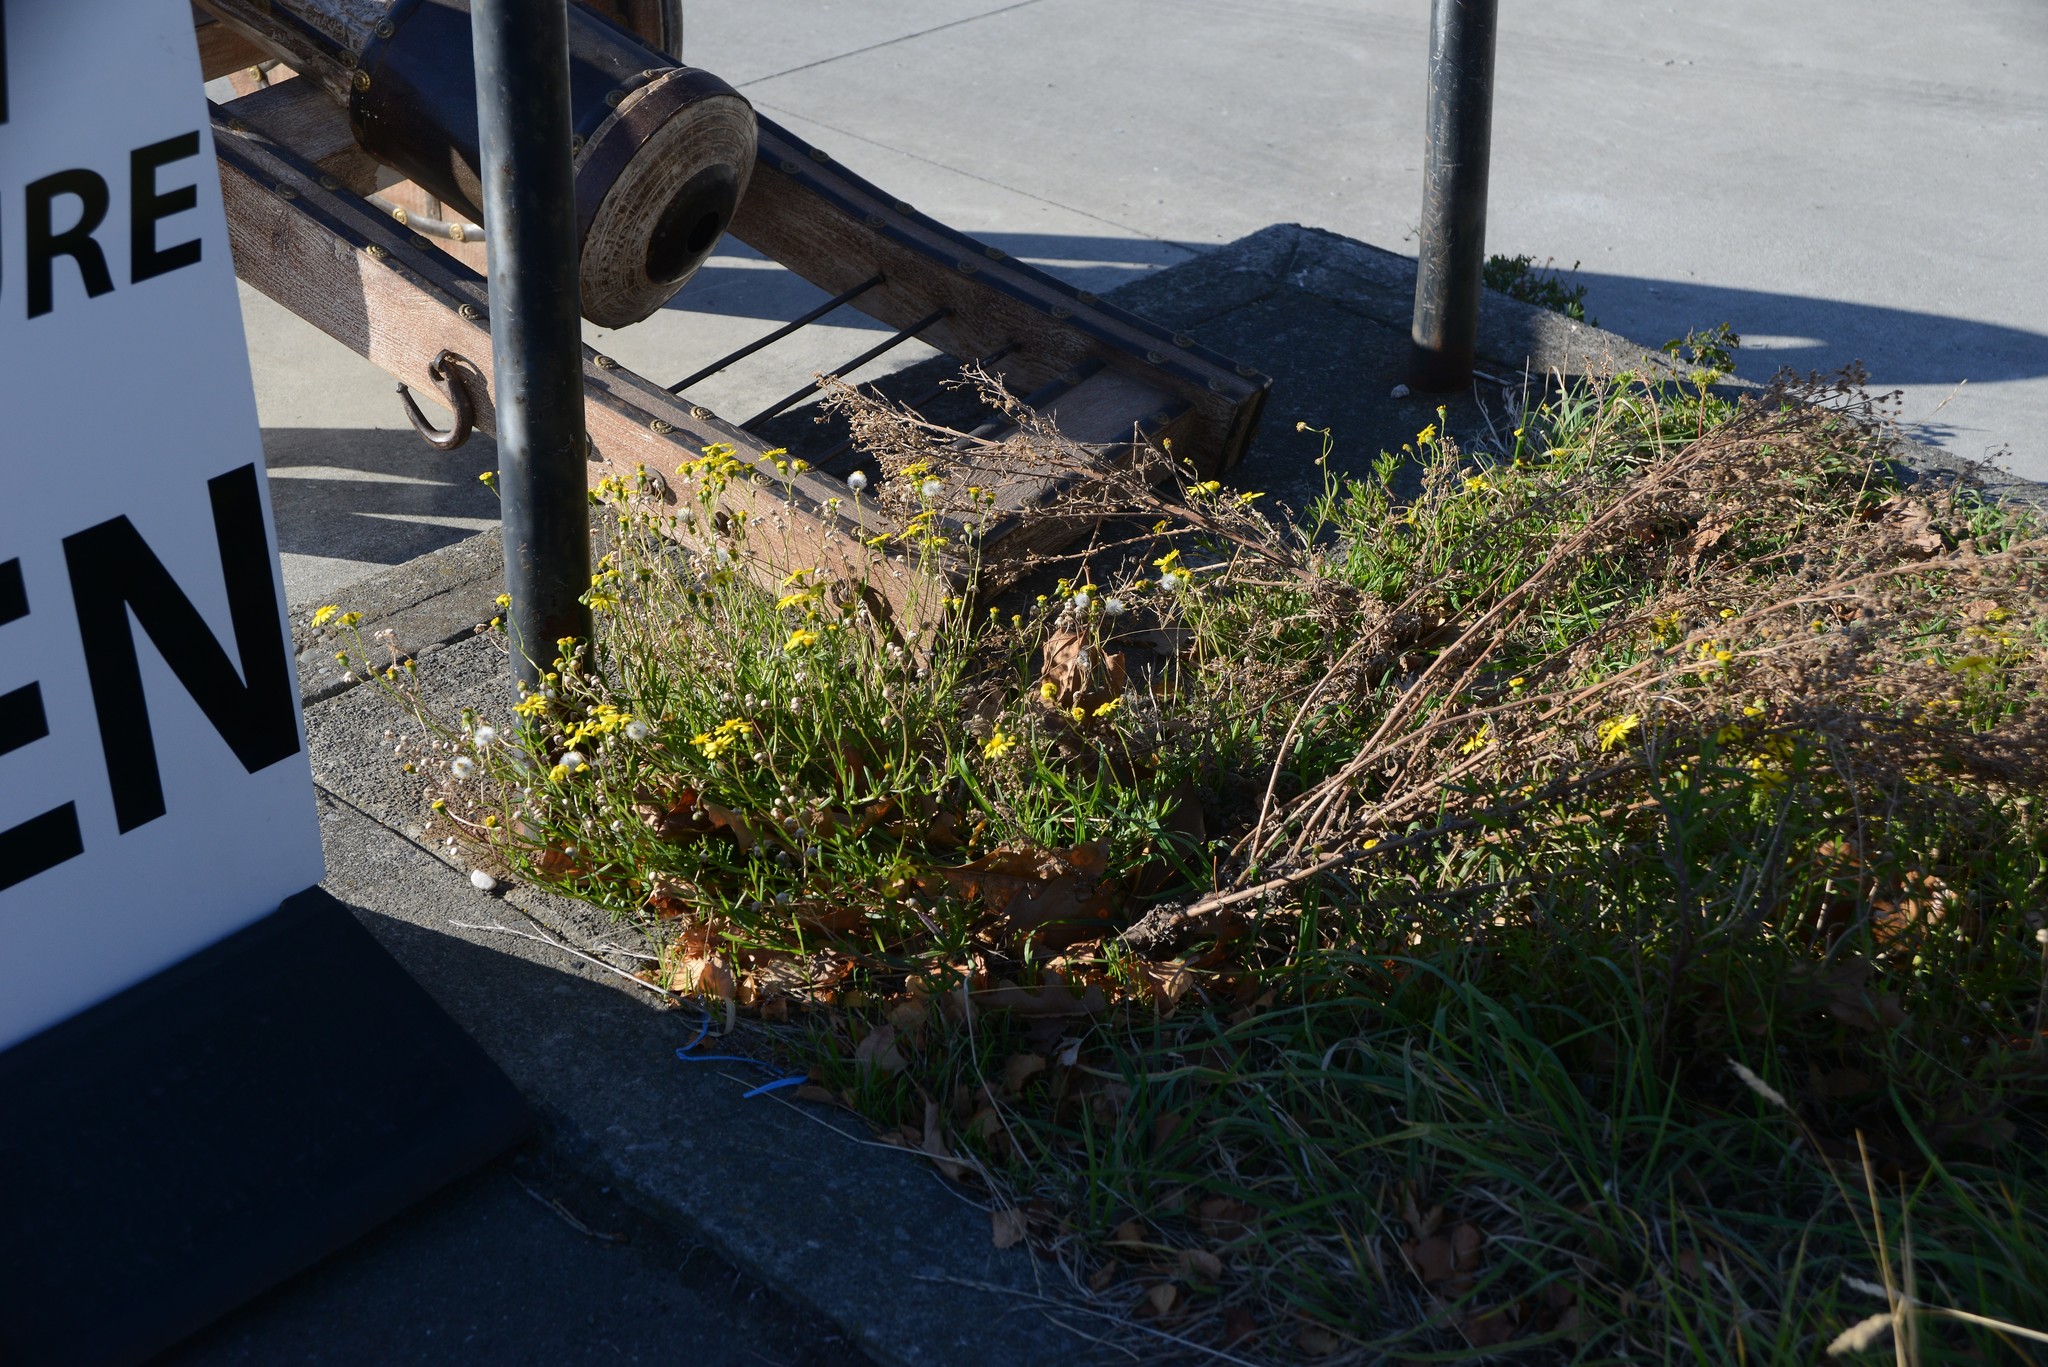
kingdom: Plantae
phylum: Tracheophyta
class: Magnoliopsida
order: Asterales
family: Asteraceae
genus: Senecio
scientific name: Senecio skirrhodon
